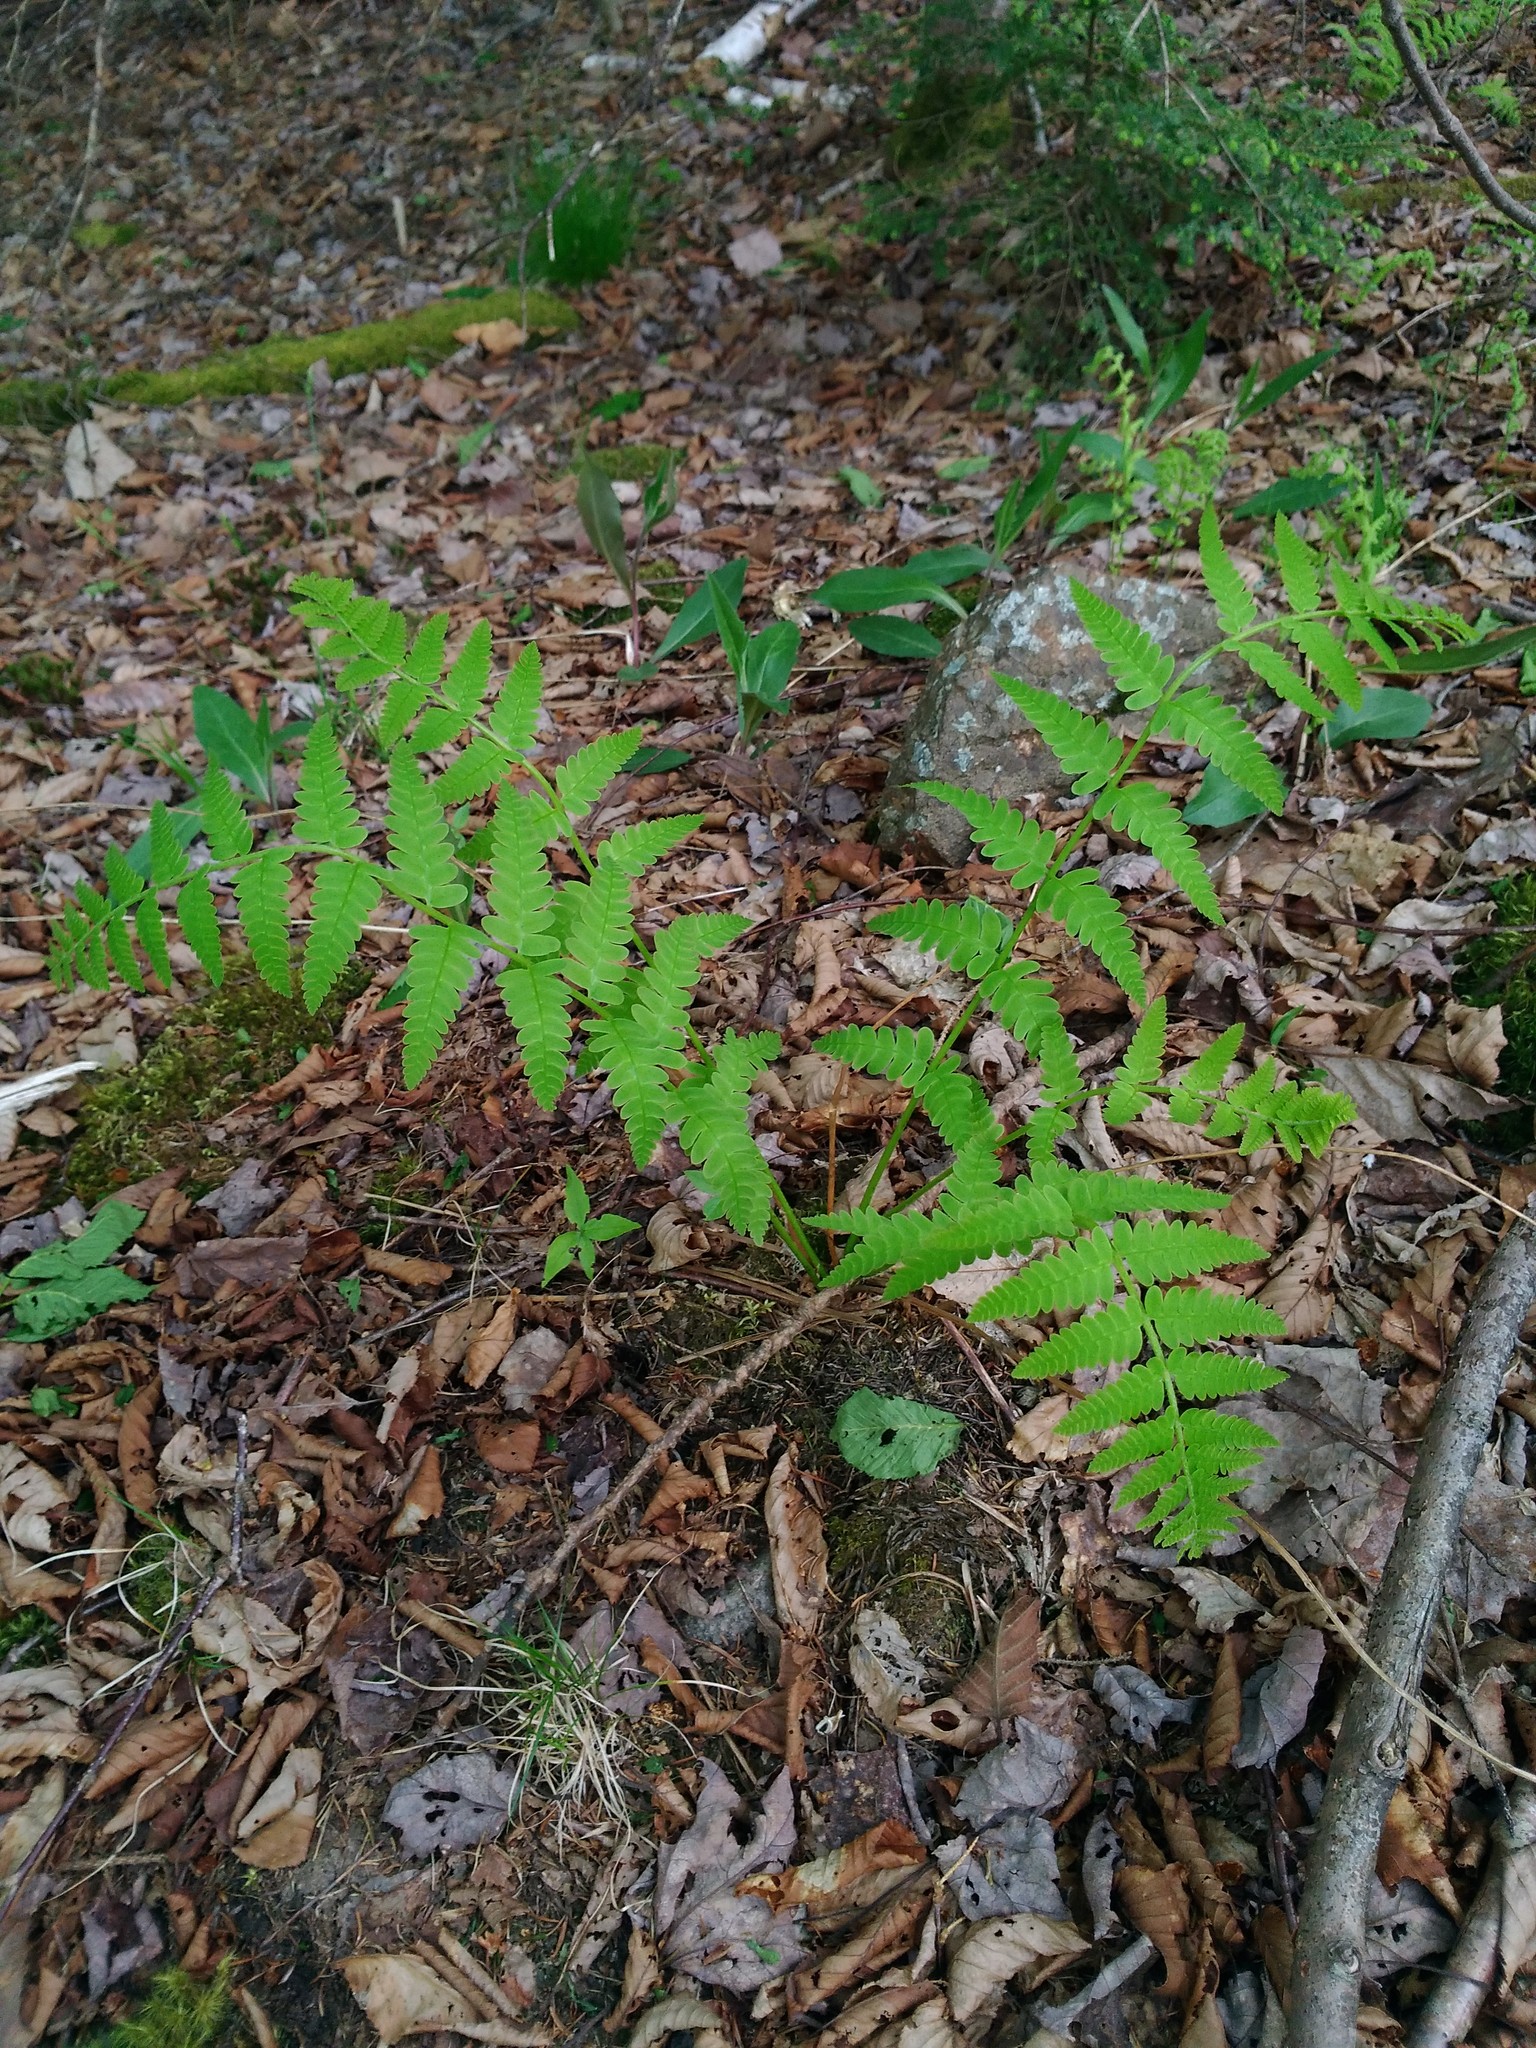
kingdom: Plantae
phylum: Tracheophyta
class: Polypodiopsida
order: Osmundales
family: Osmundaceae
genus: Claytosmunda
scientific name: Claytosmunda claytoniana
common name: Clayton's fern
